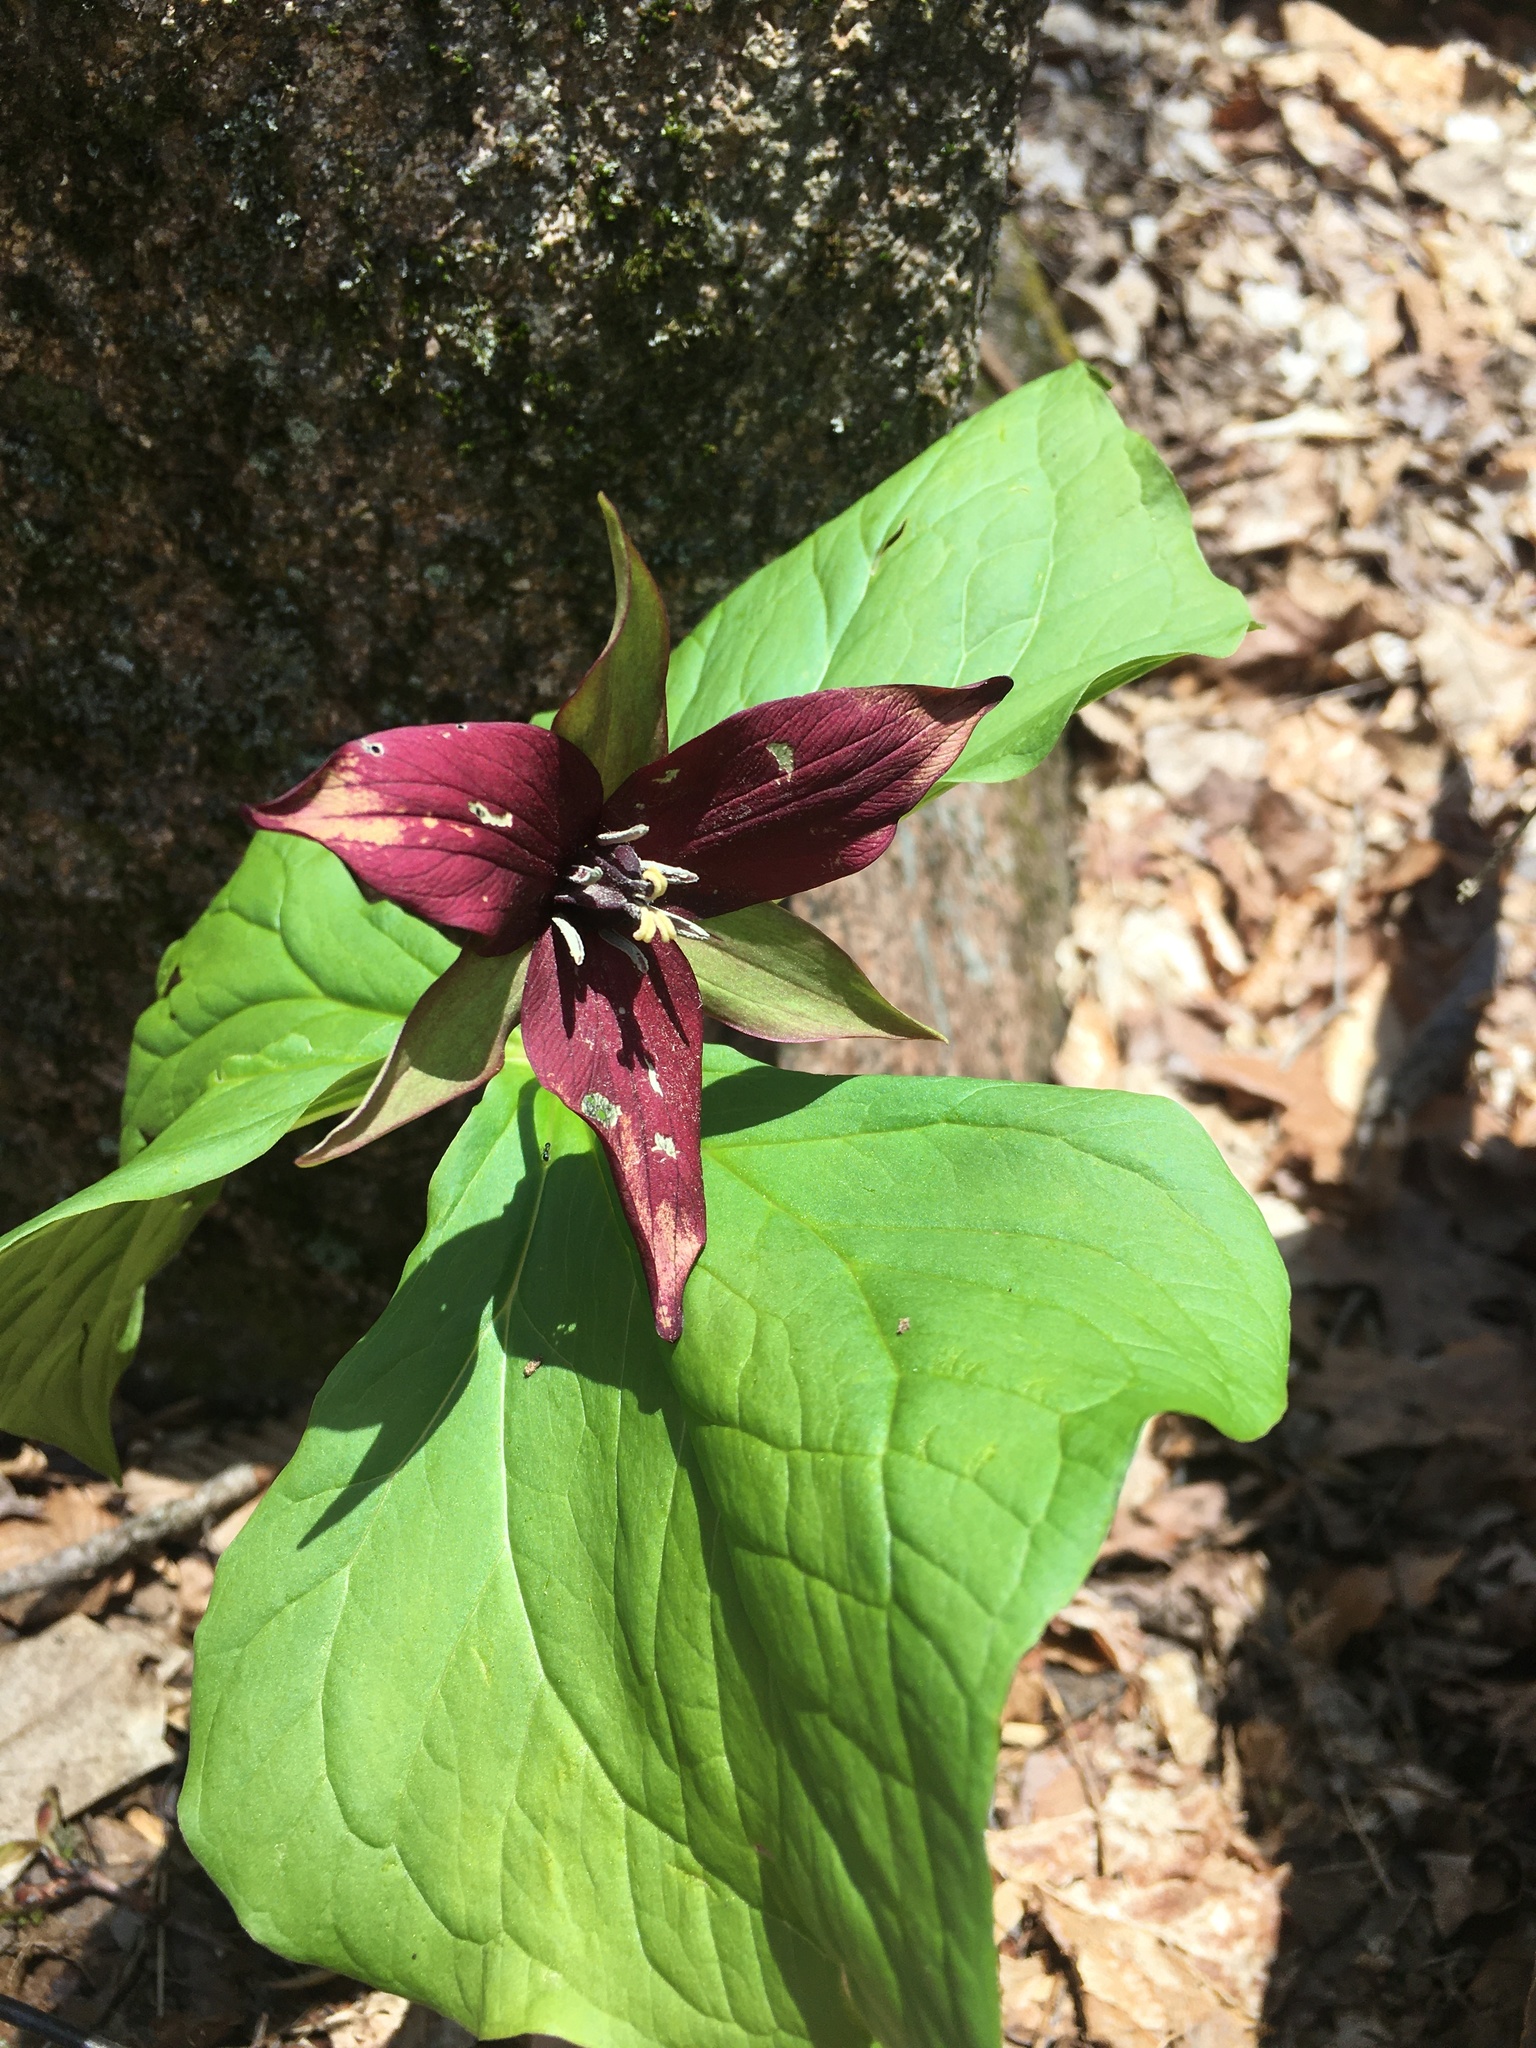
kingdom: Plantae
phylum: Tracheophyta
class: Liliopsida
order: Liliales
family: Melanthiaceae
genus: Trillium
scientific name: Trillium erectum
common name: Purple trillium
